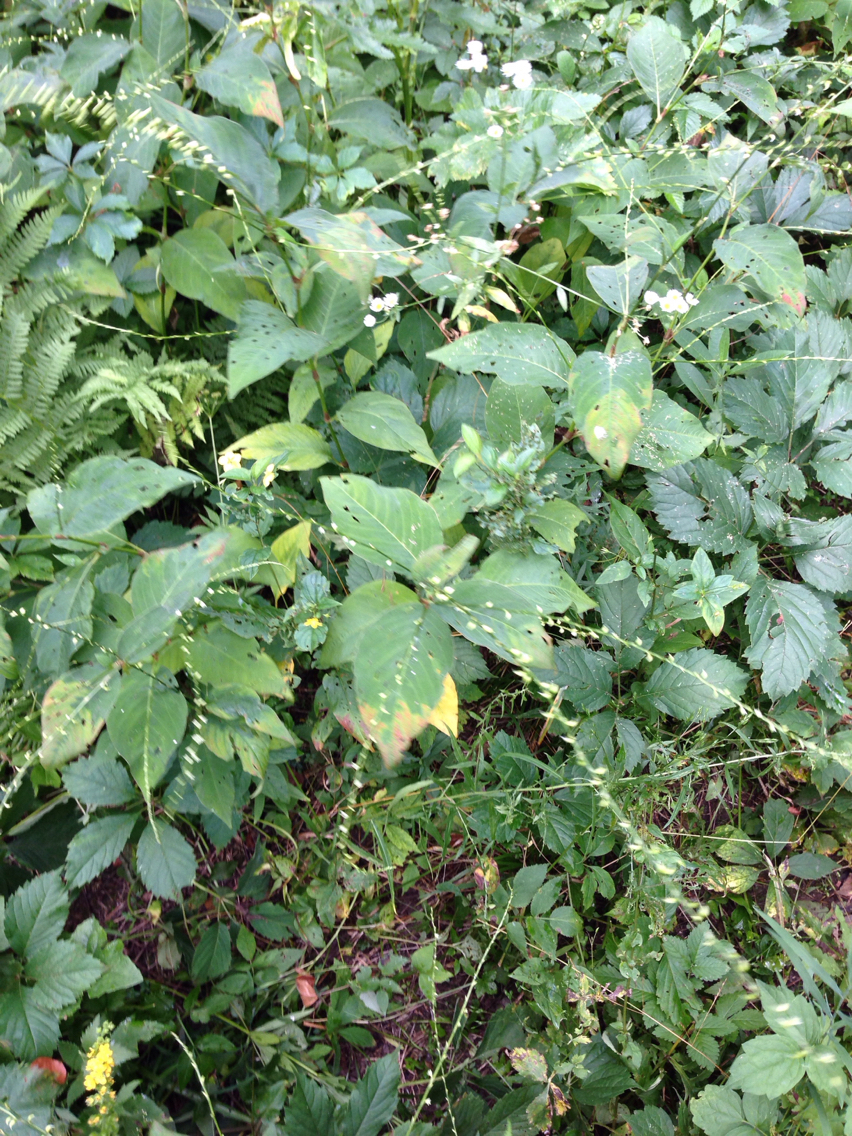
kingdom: Plantae
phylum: Tracheophyta
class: Magnoliopsida
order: Caryophyllales
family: Polygonaceae
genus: Persicaria
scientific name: Persicaria virginiana
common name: Jumpseed
